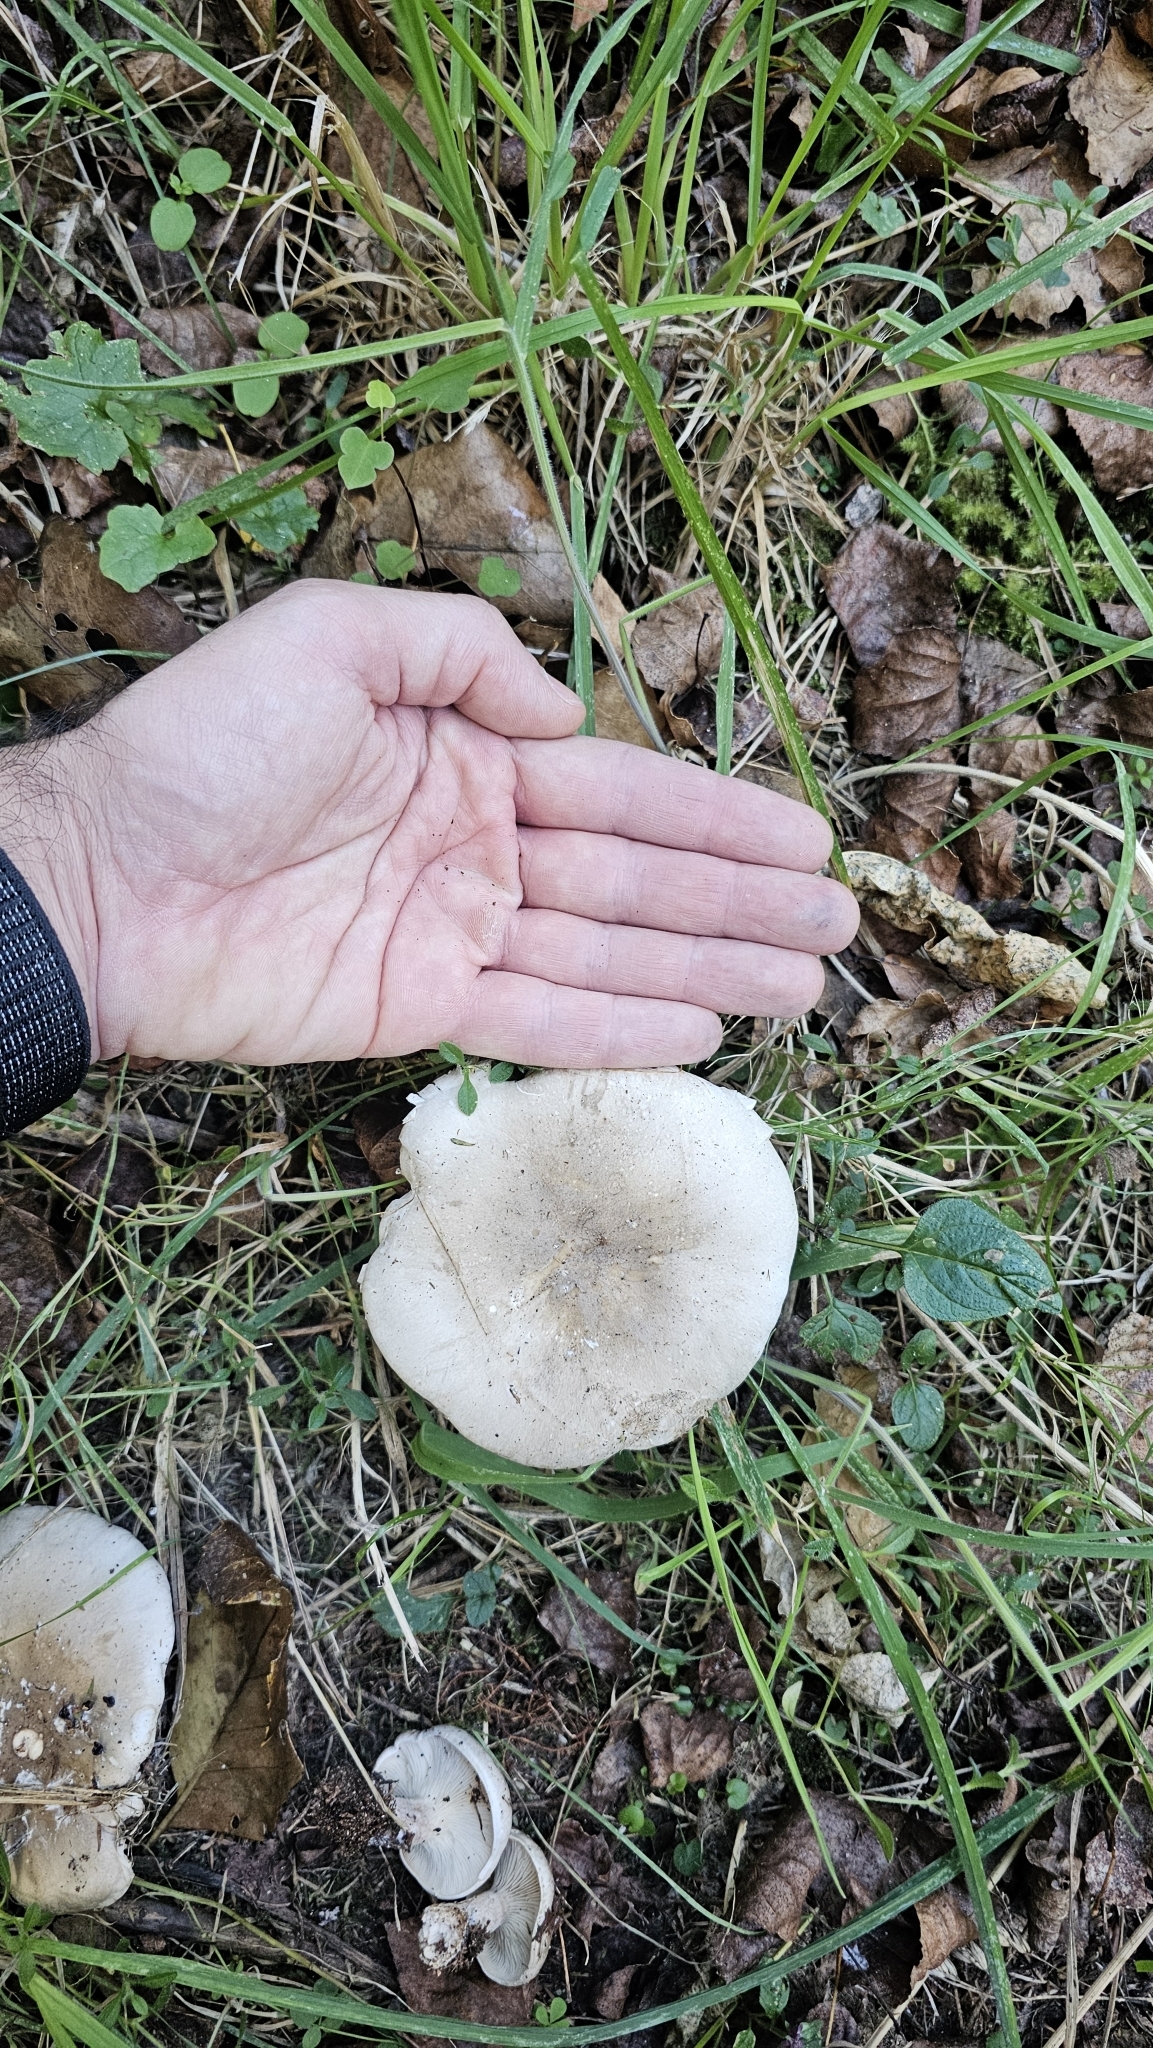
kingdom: Fungi
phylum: Basidiomycota
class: Agaricomycetes
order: Agaricales
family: Tricholomataceae
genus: Clitocybe
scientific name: Clitocybe nebularis
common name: Clouded agaric
